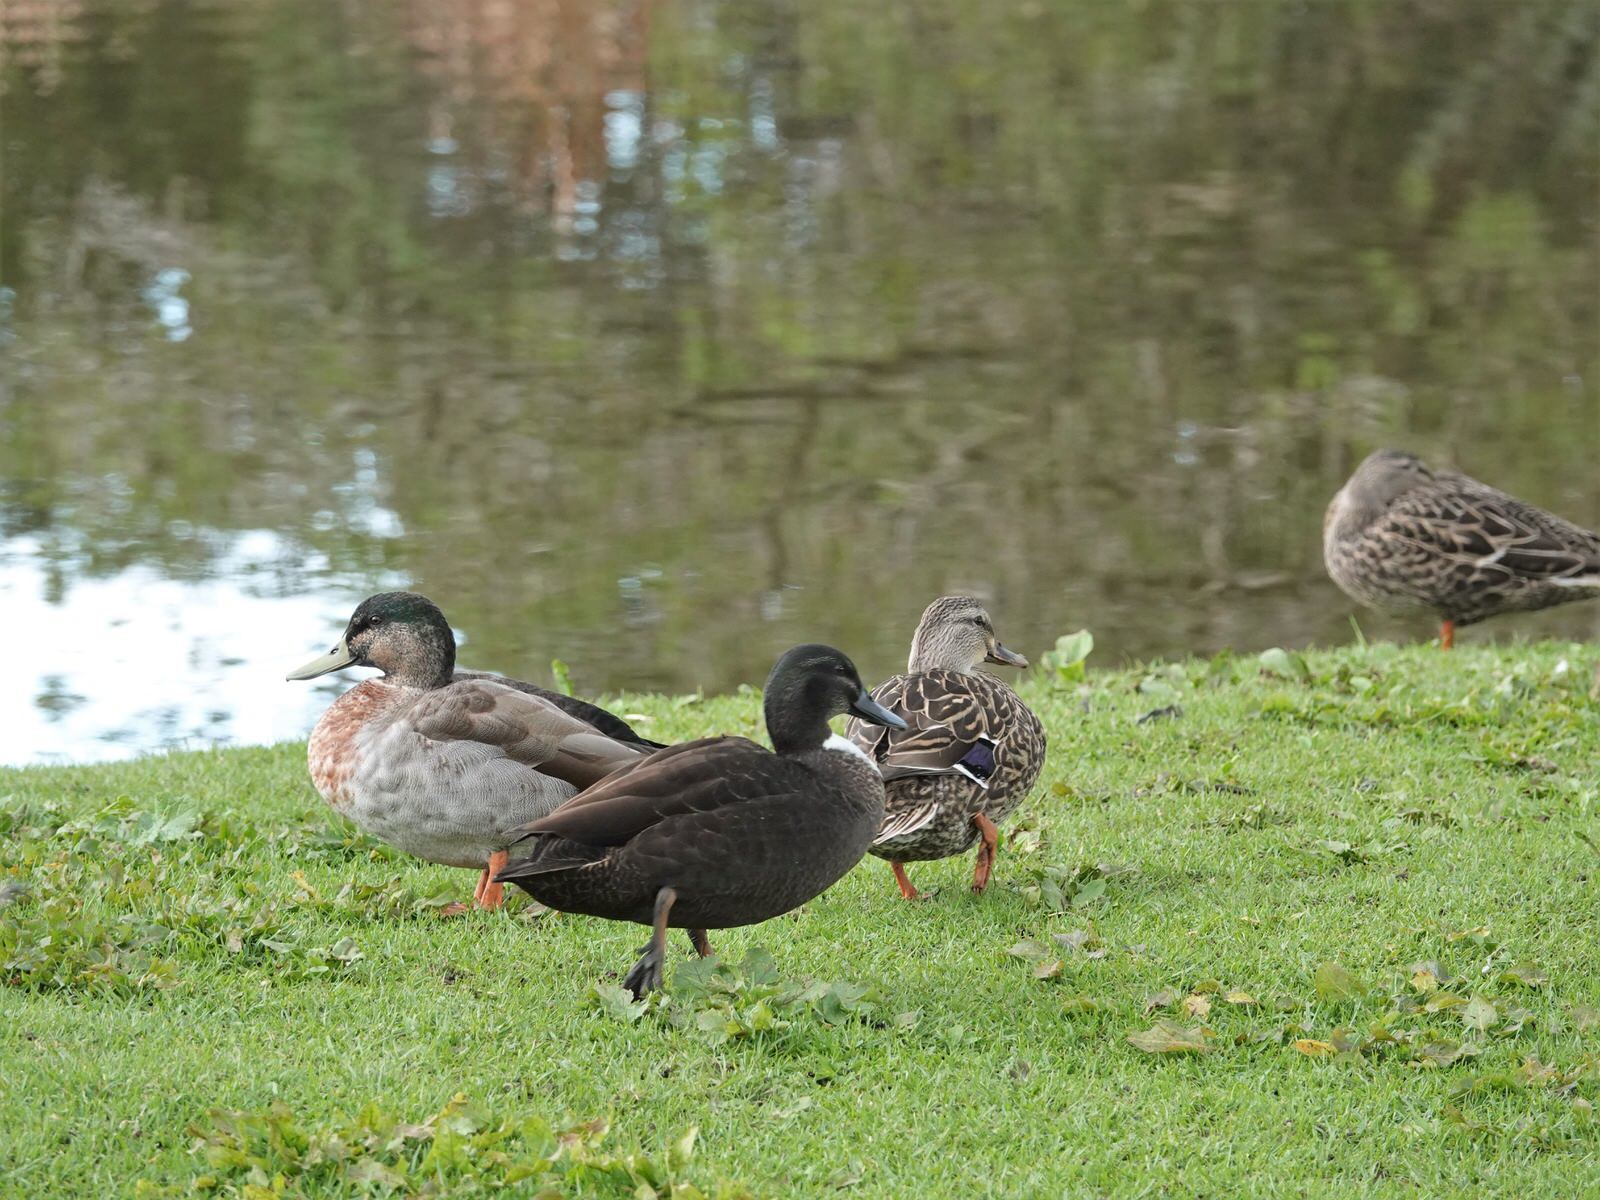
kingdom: Animalia
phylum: Chordata
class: Aves
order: Anseriformes
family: Anatidae
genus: Anas
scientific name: Anas
